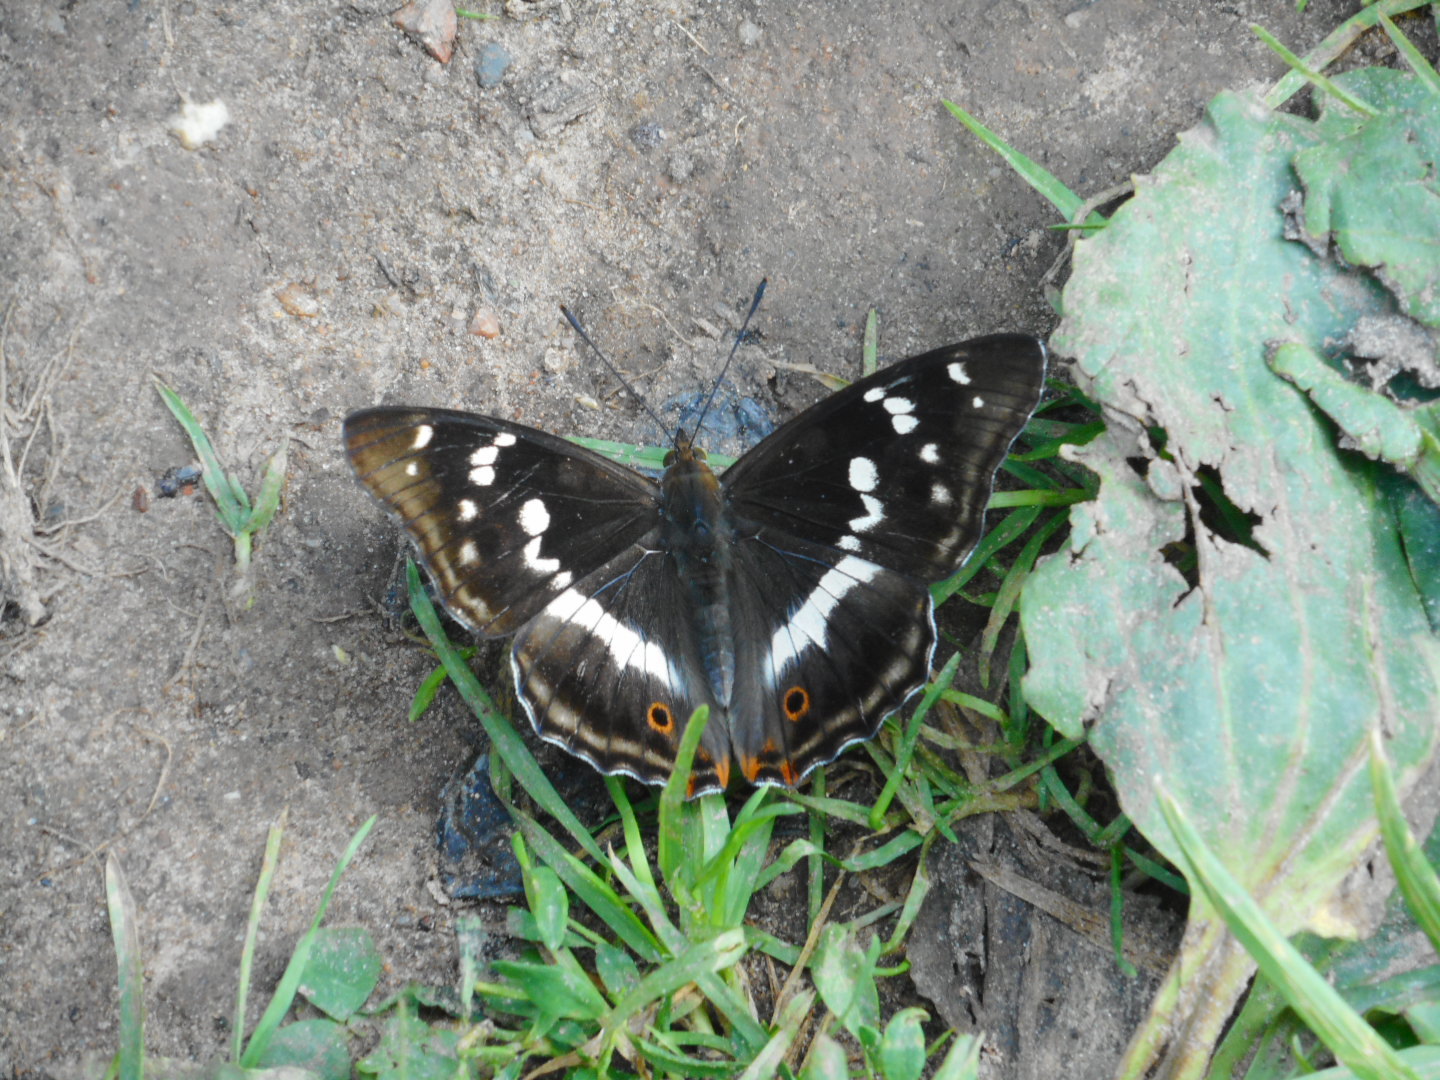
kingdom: Animalia
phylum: Arthropoda
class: Insecta
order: Lepidoptera
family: Nymphalidae
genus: Apatura
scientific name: Apatura iris
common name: Purple emperor
